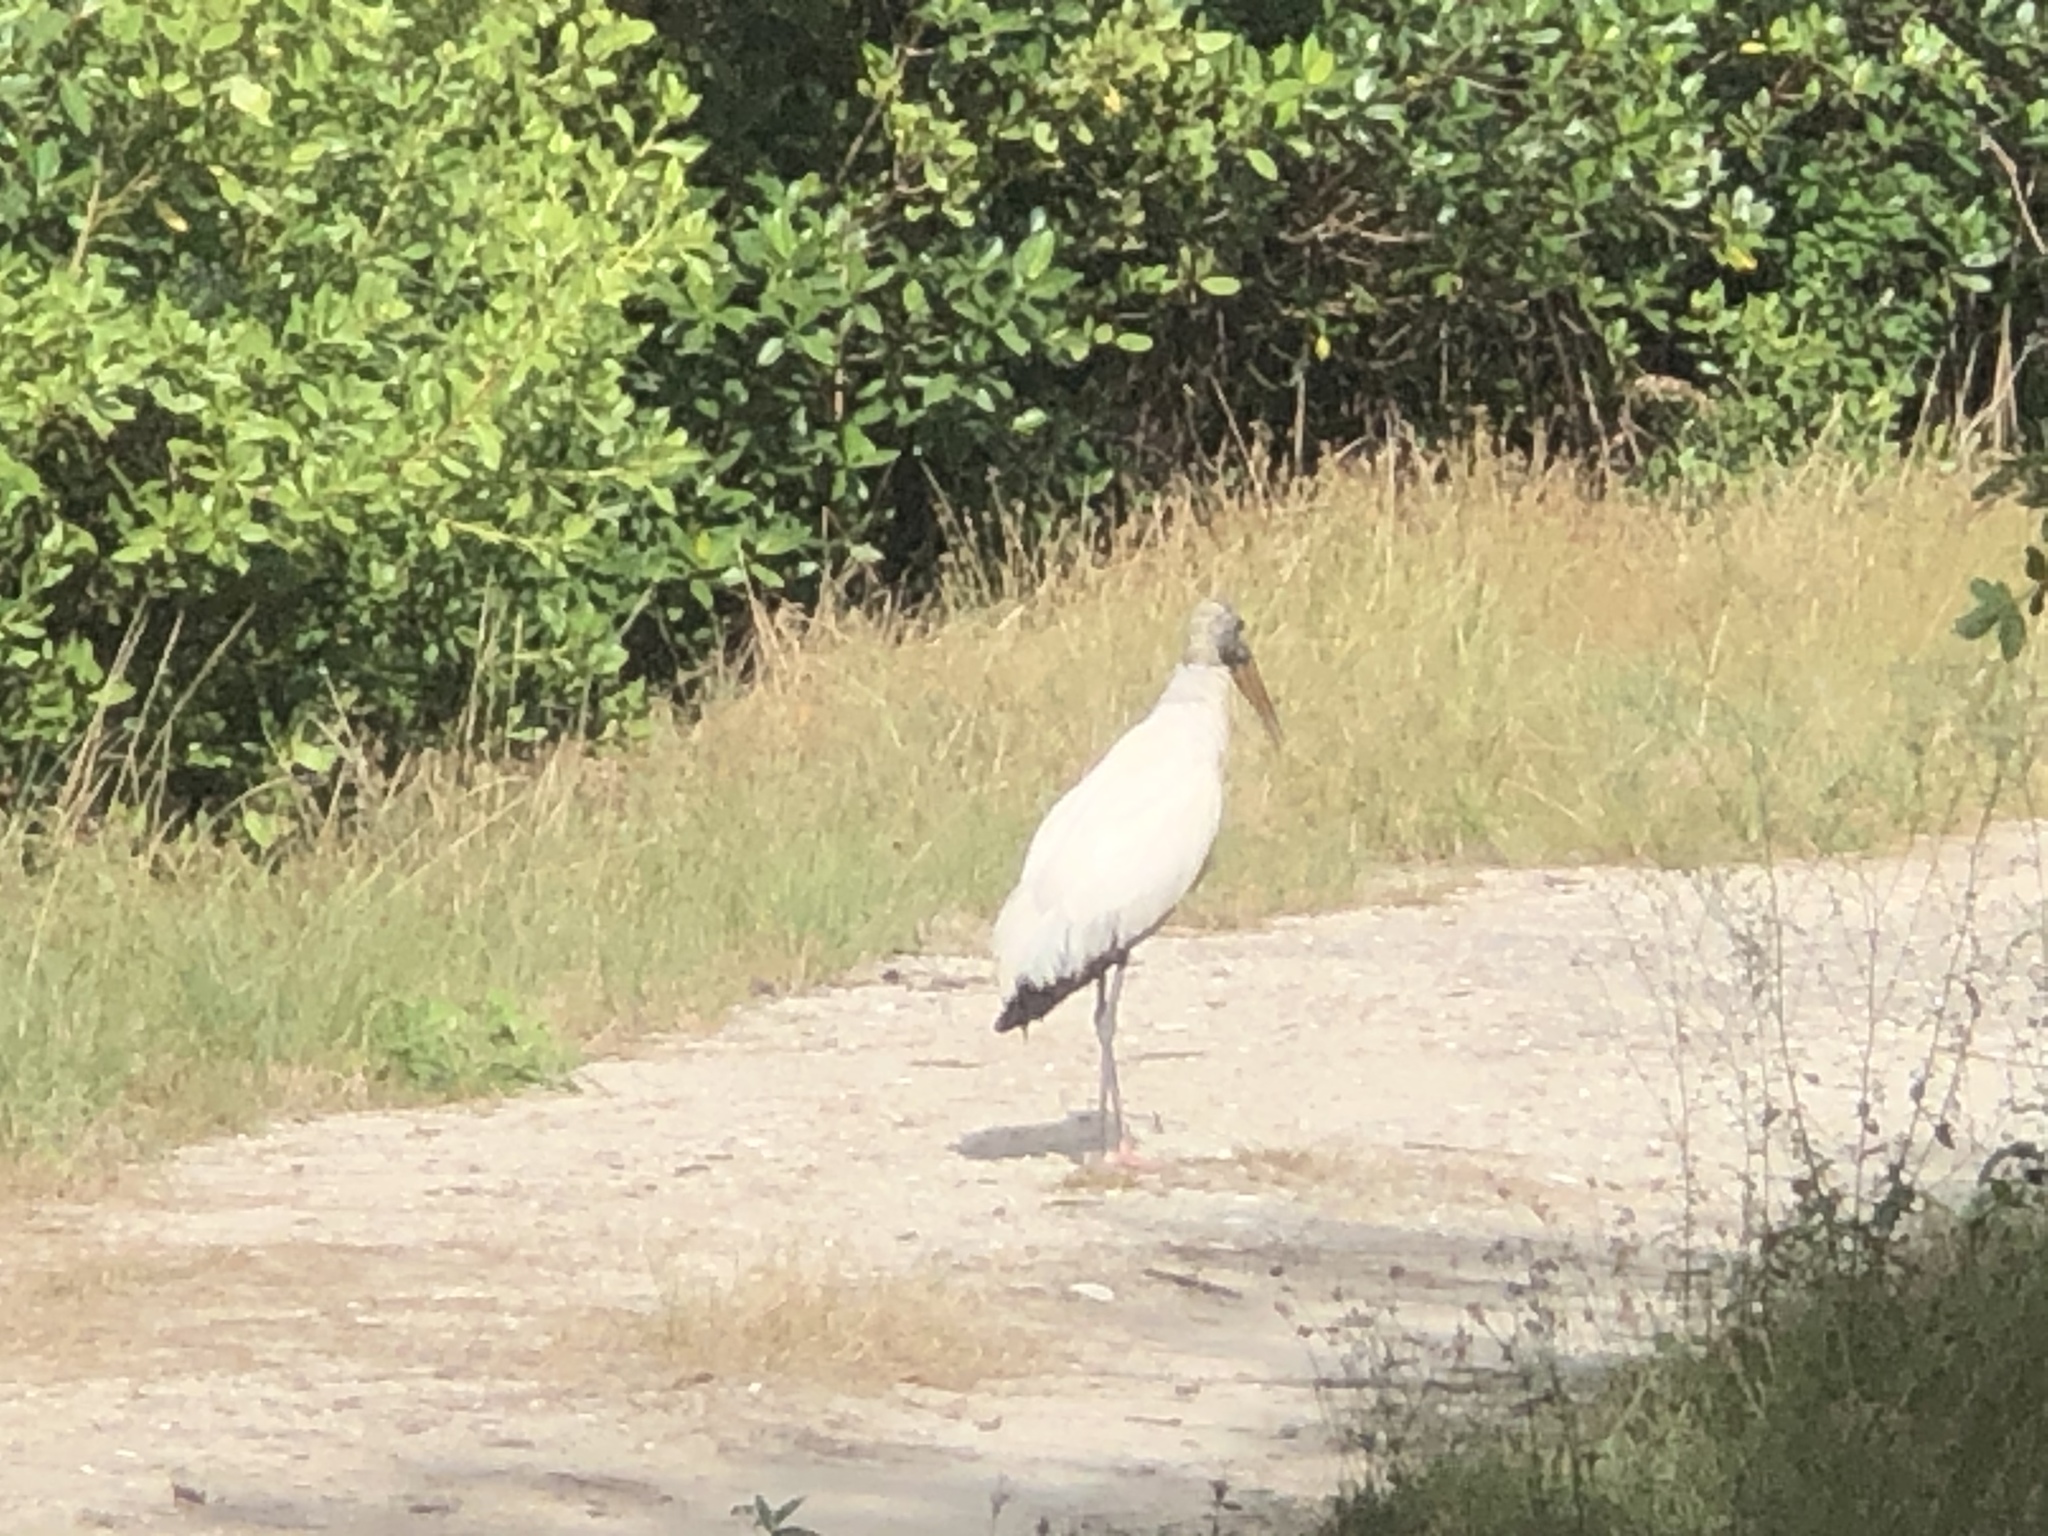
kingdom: Animalia
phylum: Chordata
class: Aves
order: Ciconiiformes
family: Ciconiidae
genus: Mycteria
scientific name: Mycteria americana
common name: Wood stork
